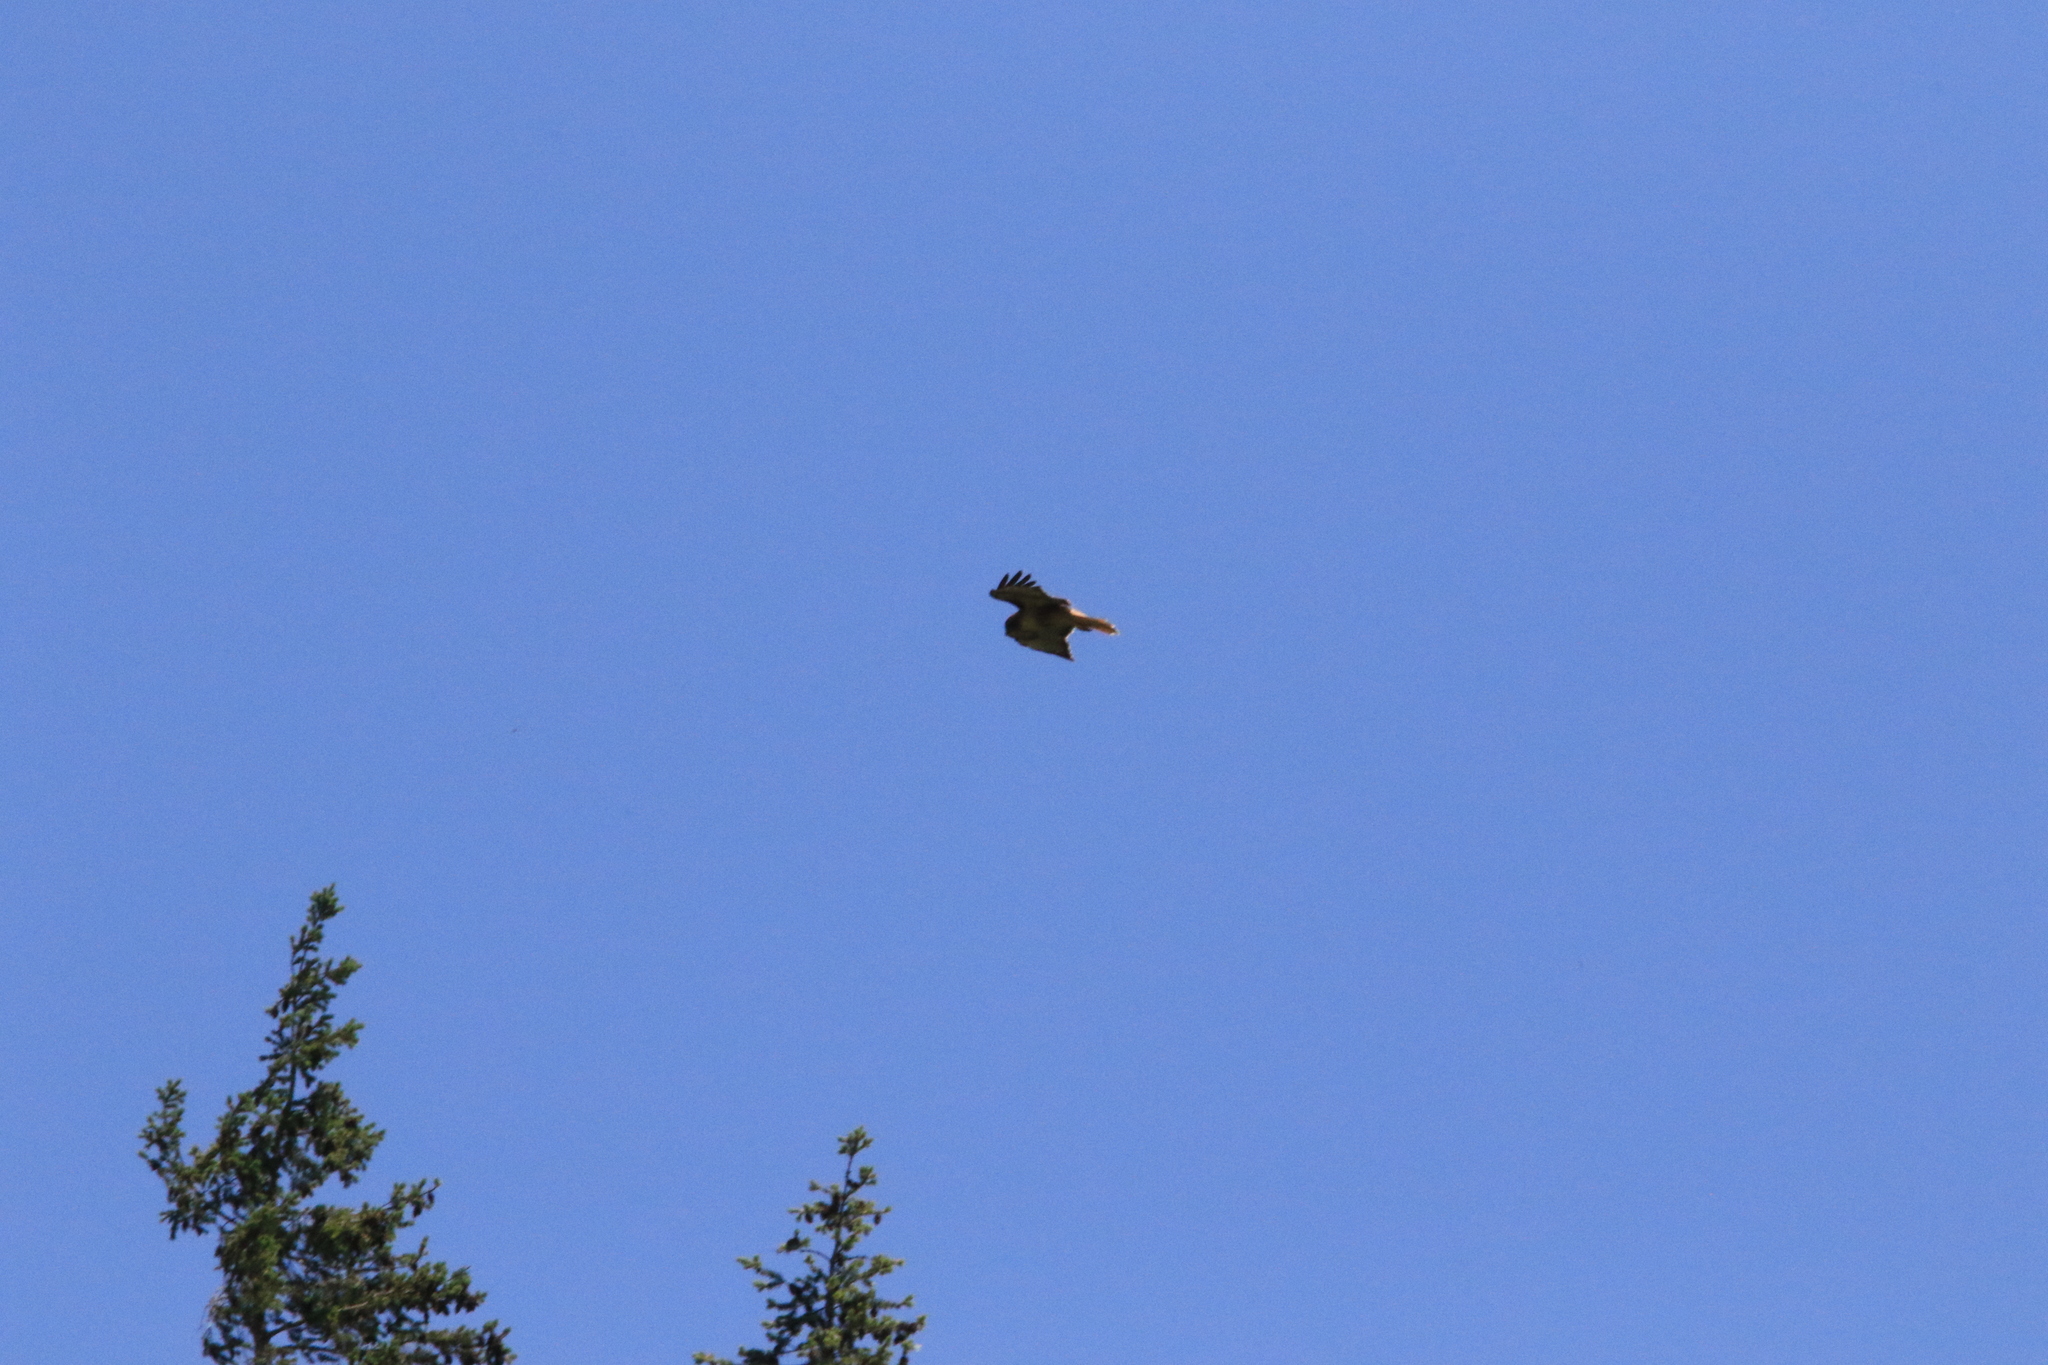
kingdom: Animalia
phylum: Chordata
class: Aves
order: Accipitriformes
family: Accipitridae
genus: Buteo
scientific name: Buteo jamaicensis
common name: Red-tailed hawk
